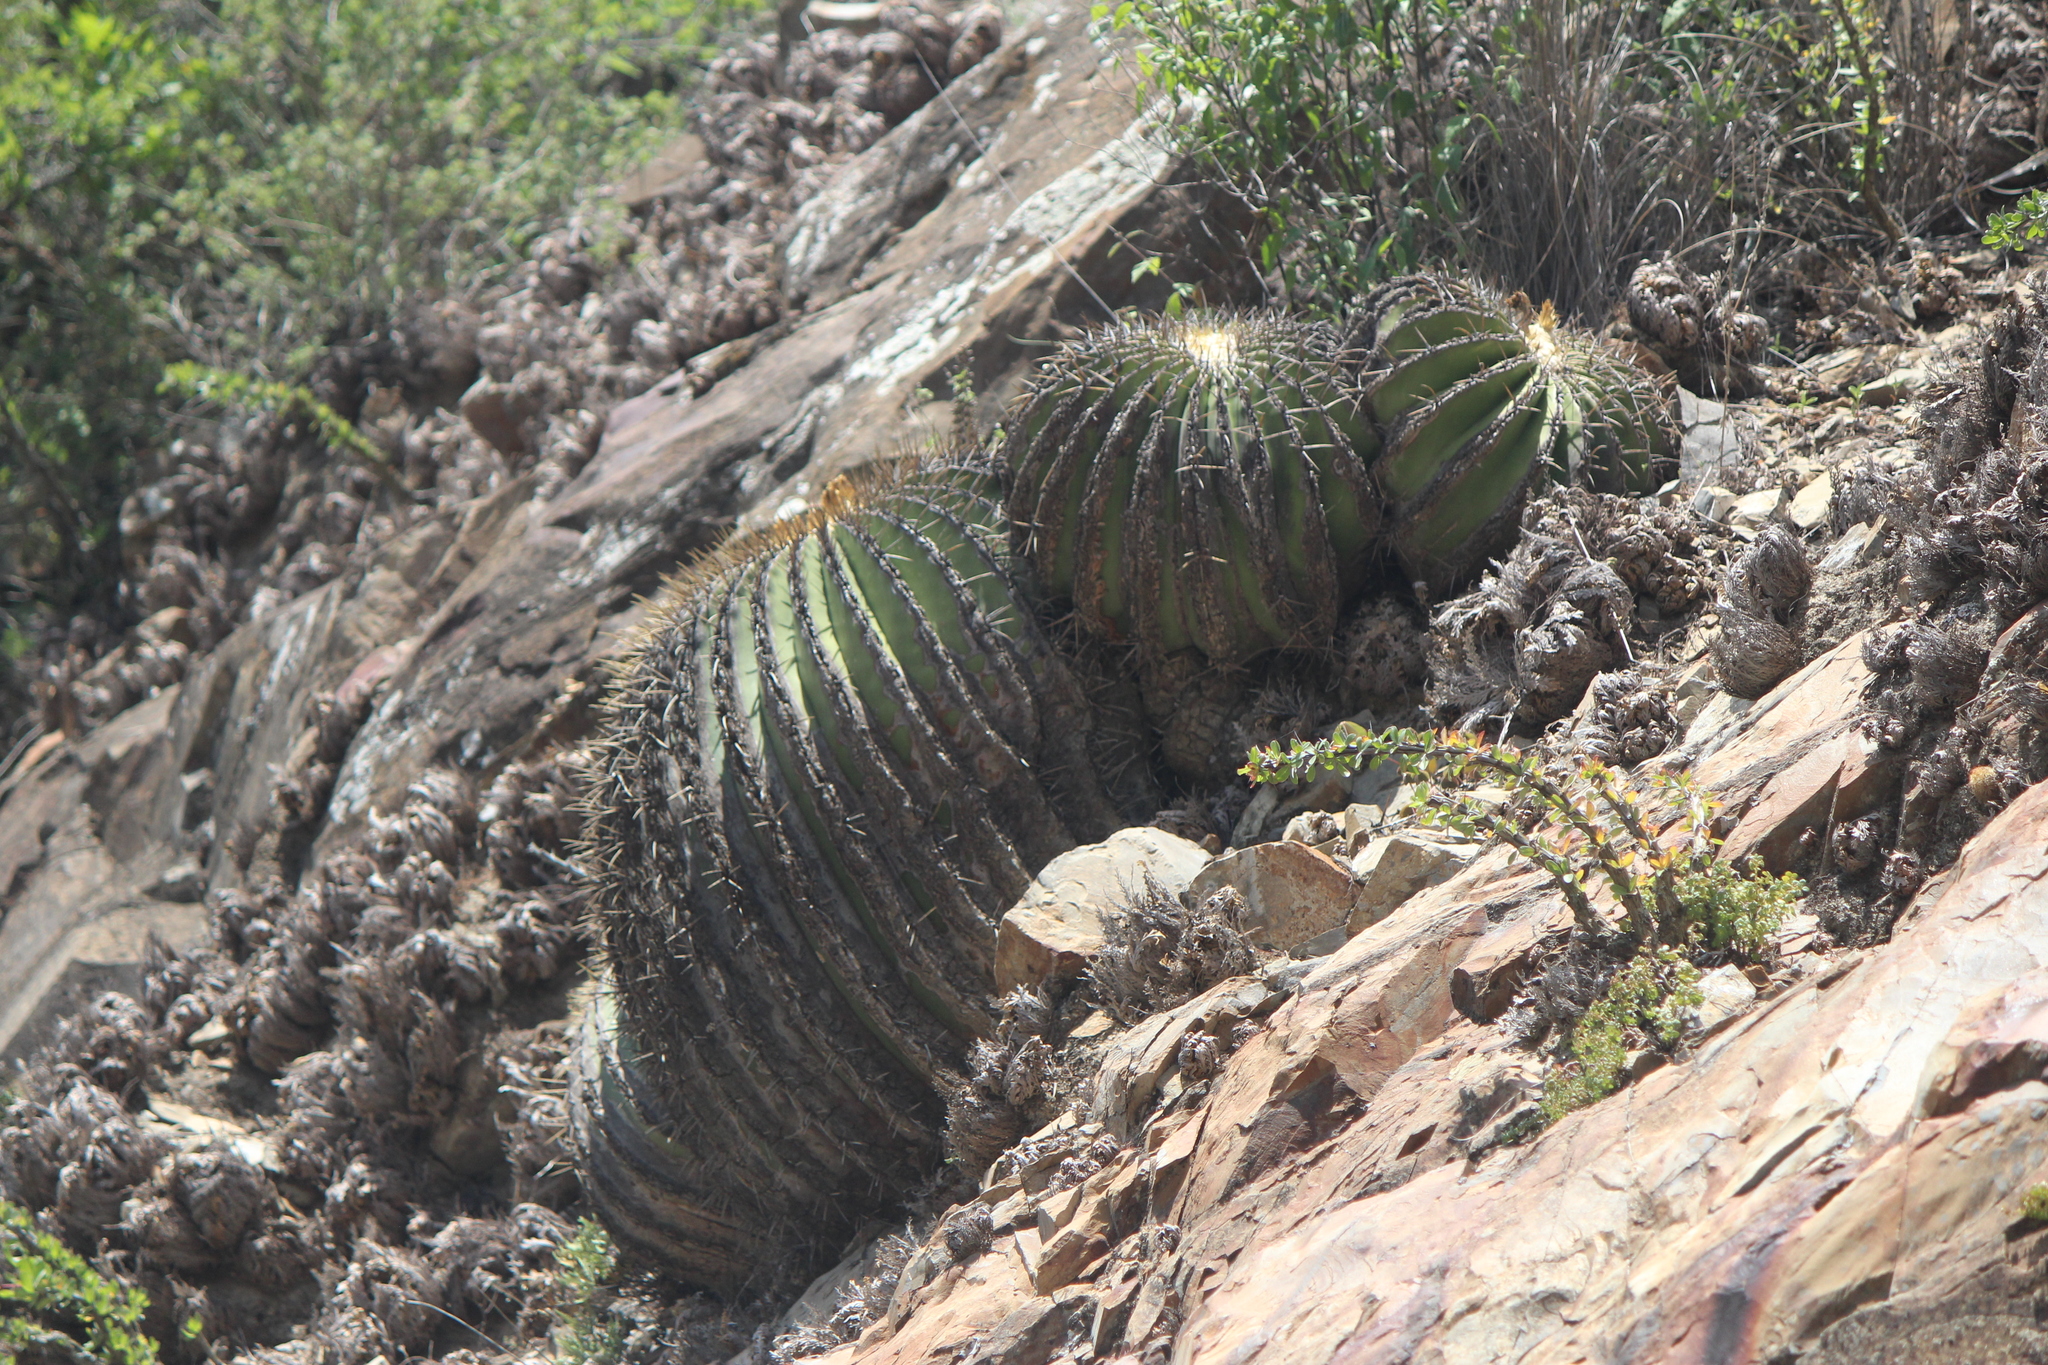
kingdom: Plantae
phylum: Tracheophyta
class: Magnoliopsida
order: Caryophyllales
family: Cactaceae
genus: Echinocactus
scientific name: Echinocactus platyacanthus
